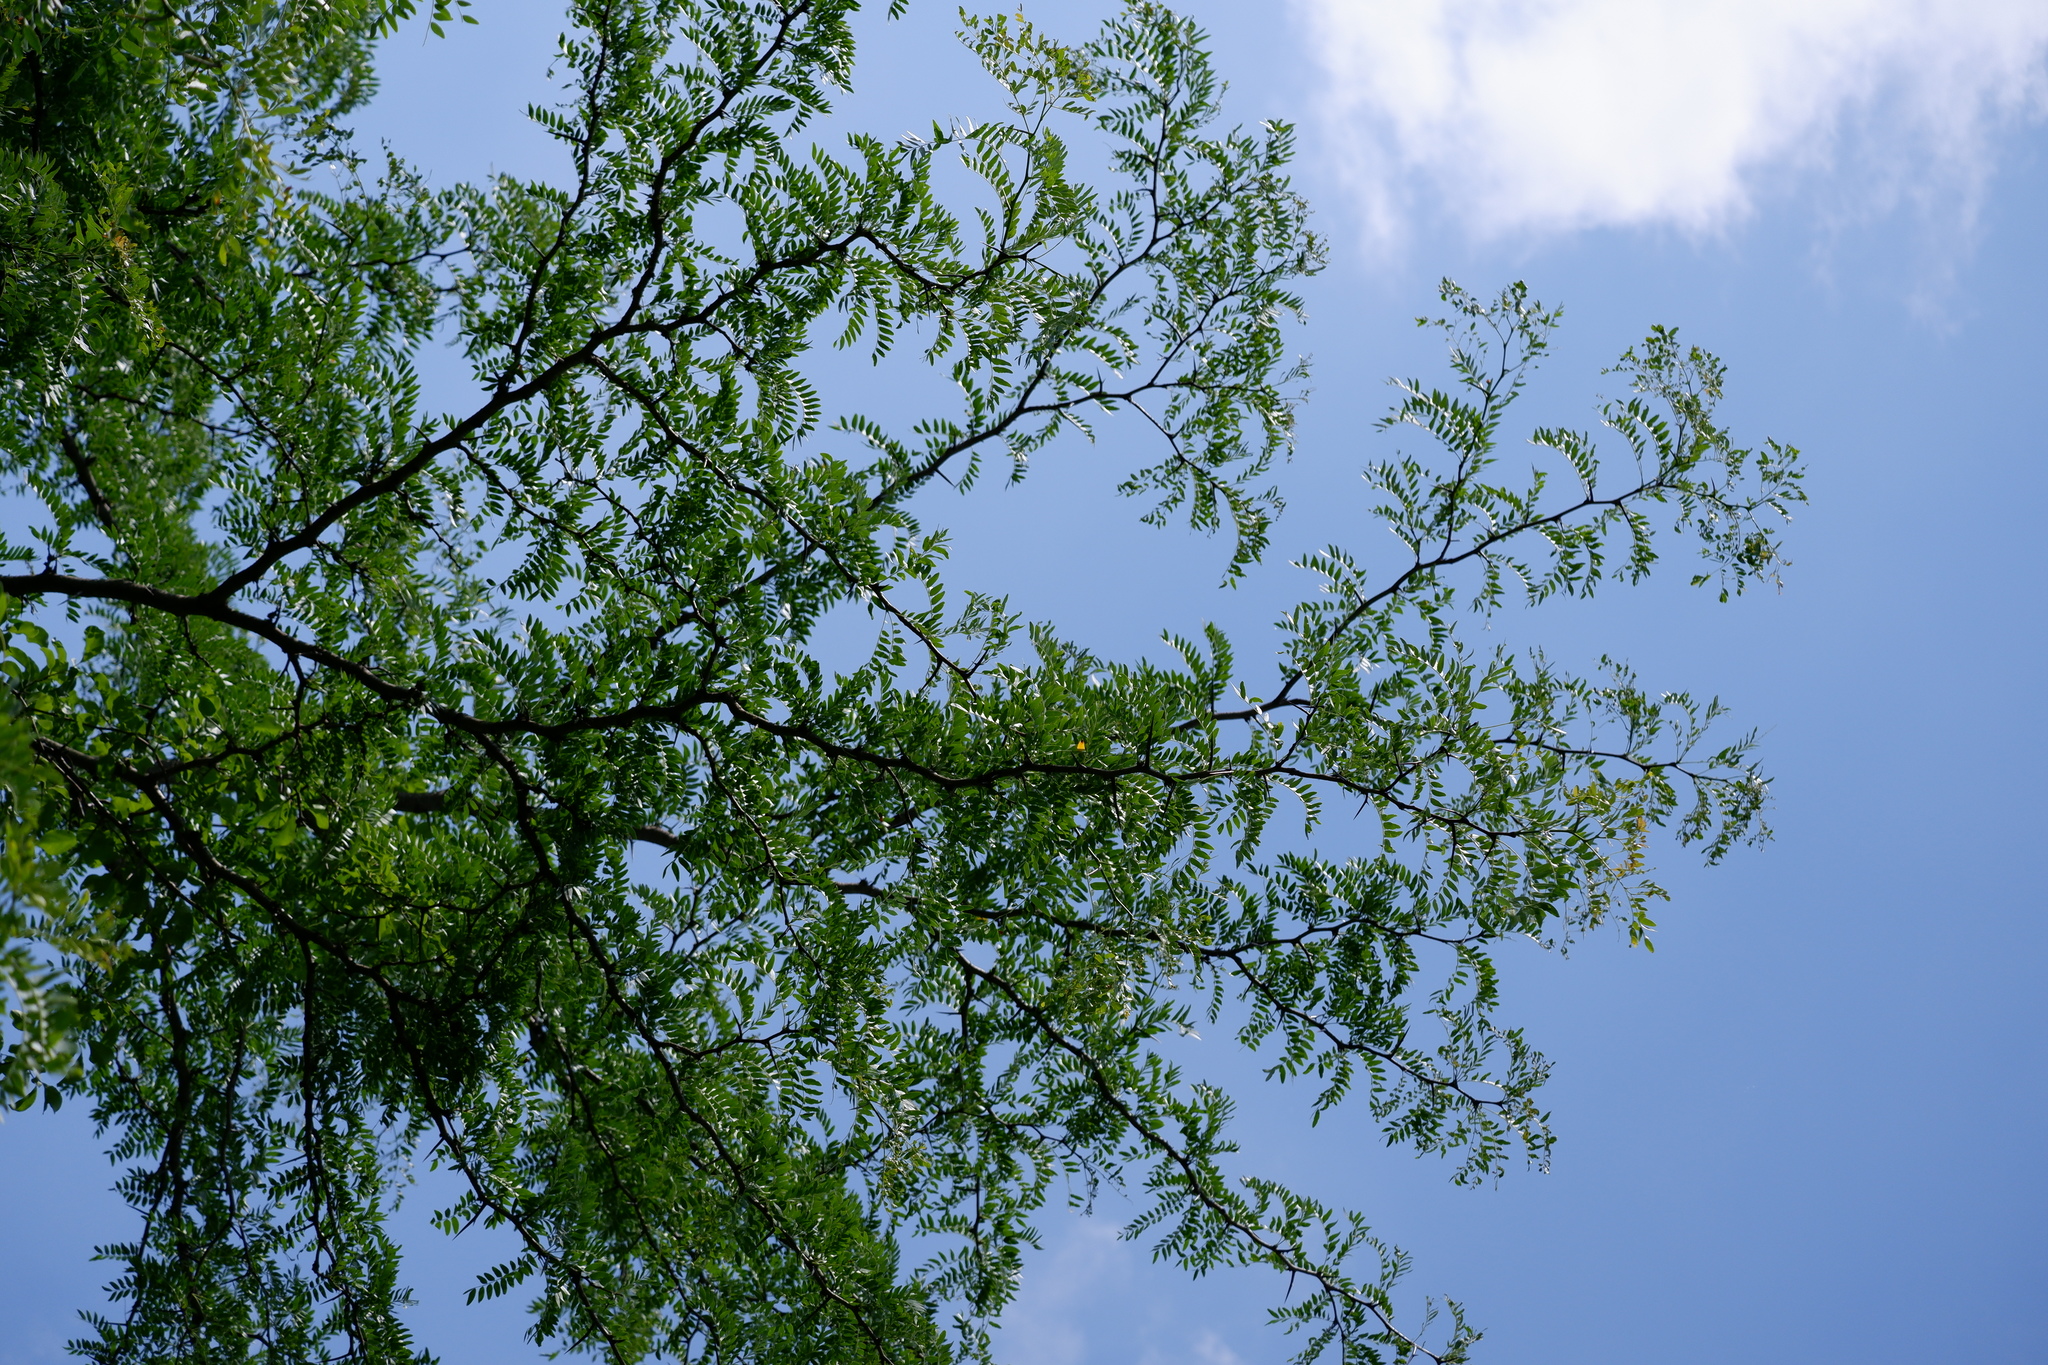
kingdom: Plantae
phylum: Tracheophyta
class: Magnoliopsida
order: Fabales
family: Fabaceae
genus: Gleditsia
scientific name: Gleditsia triacanthos
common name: Common honeylocust
